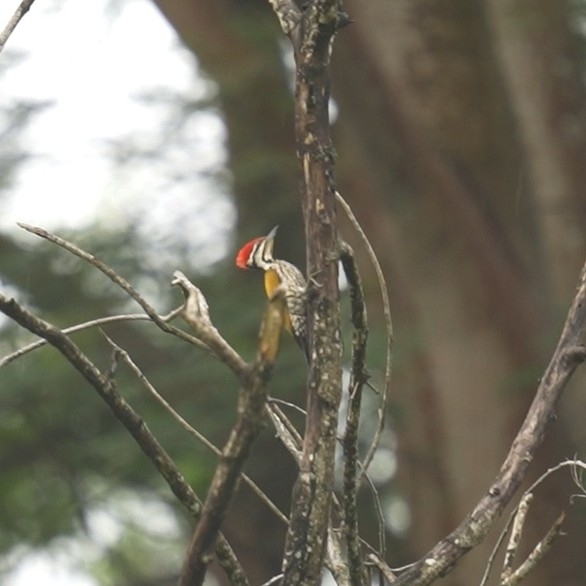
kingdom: Animalia
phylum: Chordata
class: Aves
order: Piciformes
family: Picidae
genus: Dinopium
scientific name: Dinopium javanense
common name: Common flameback
